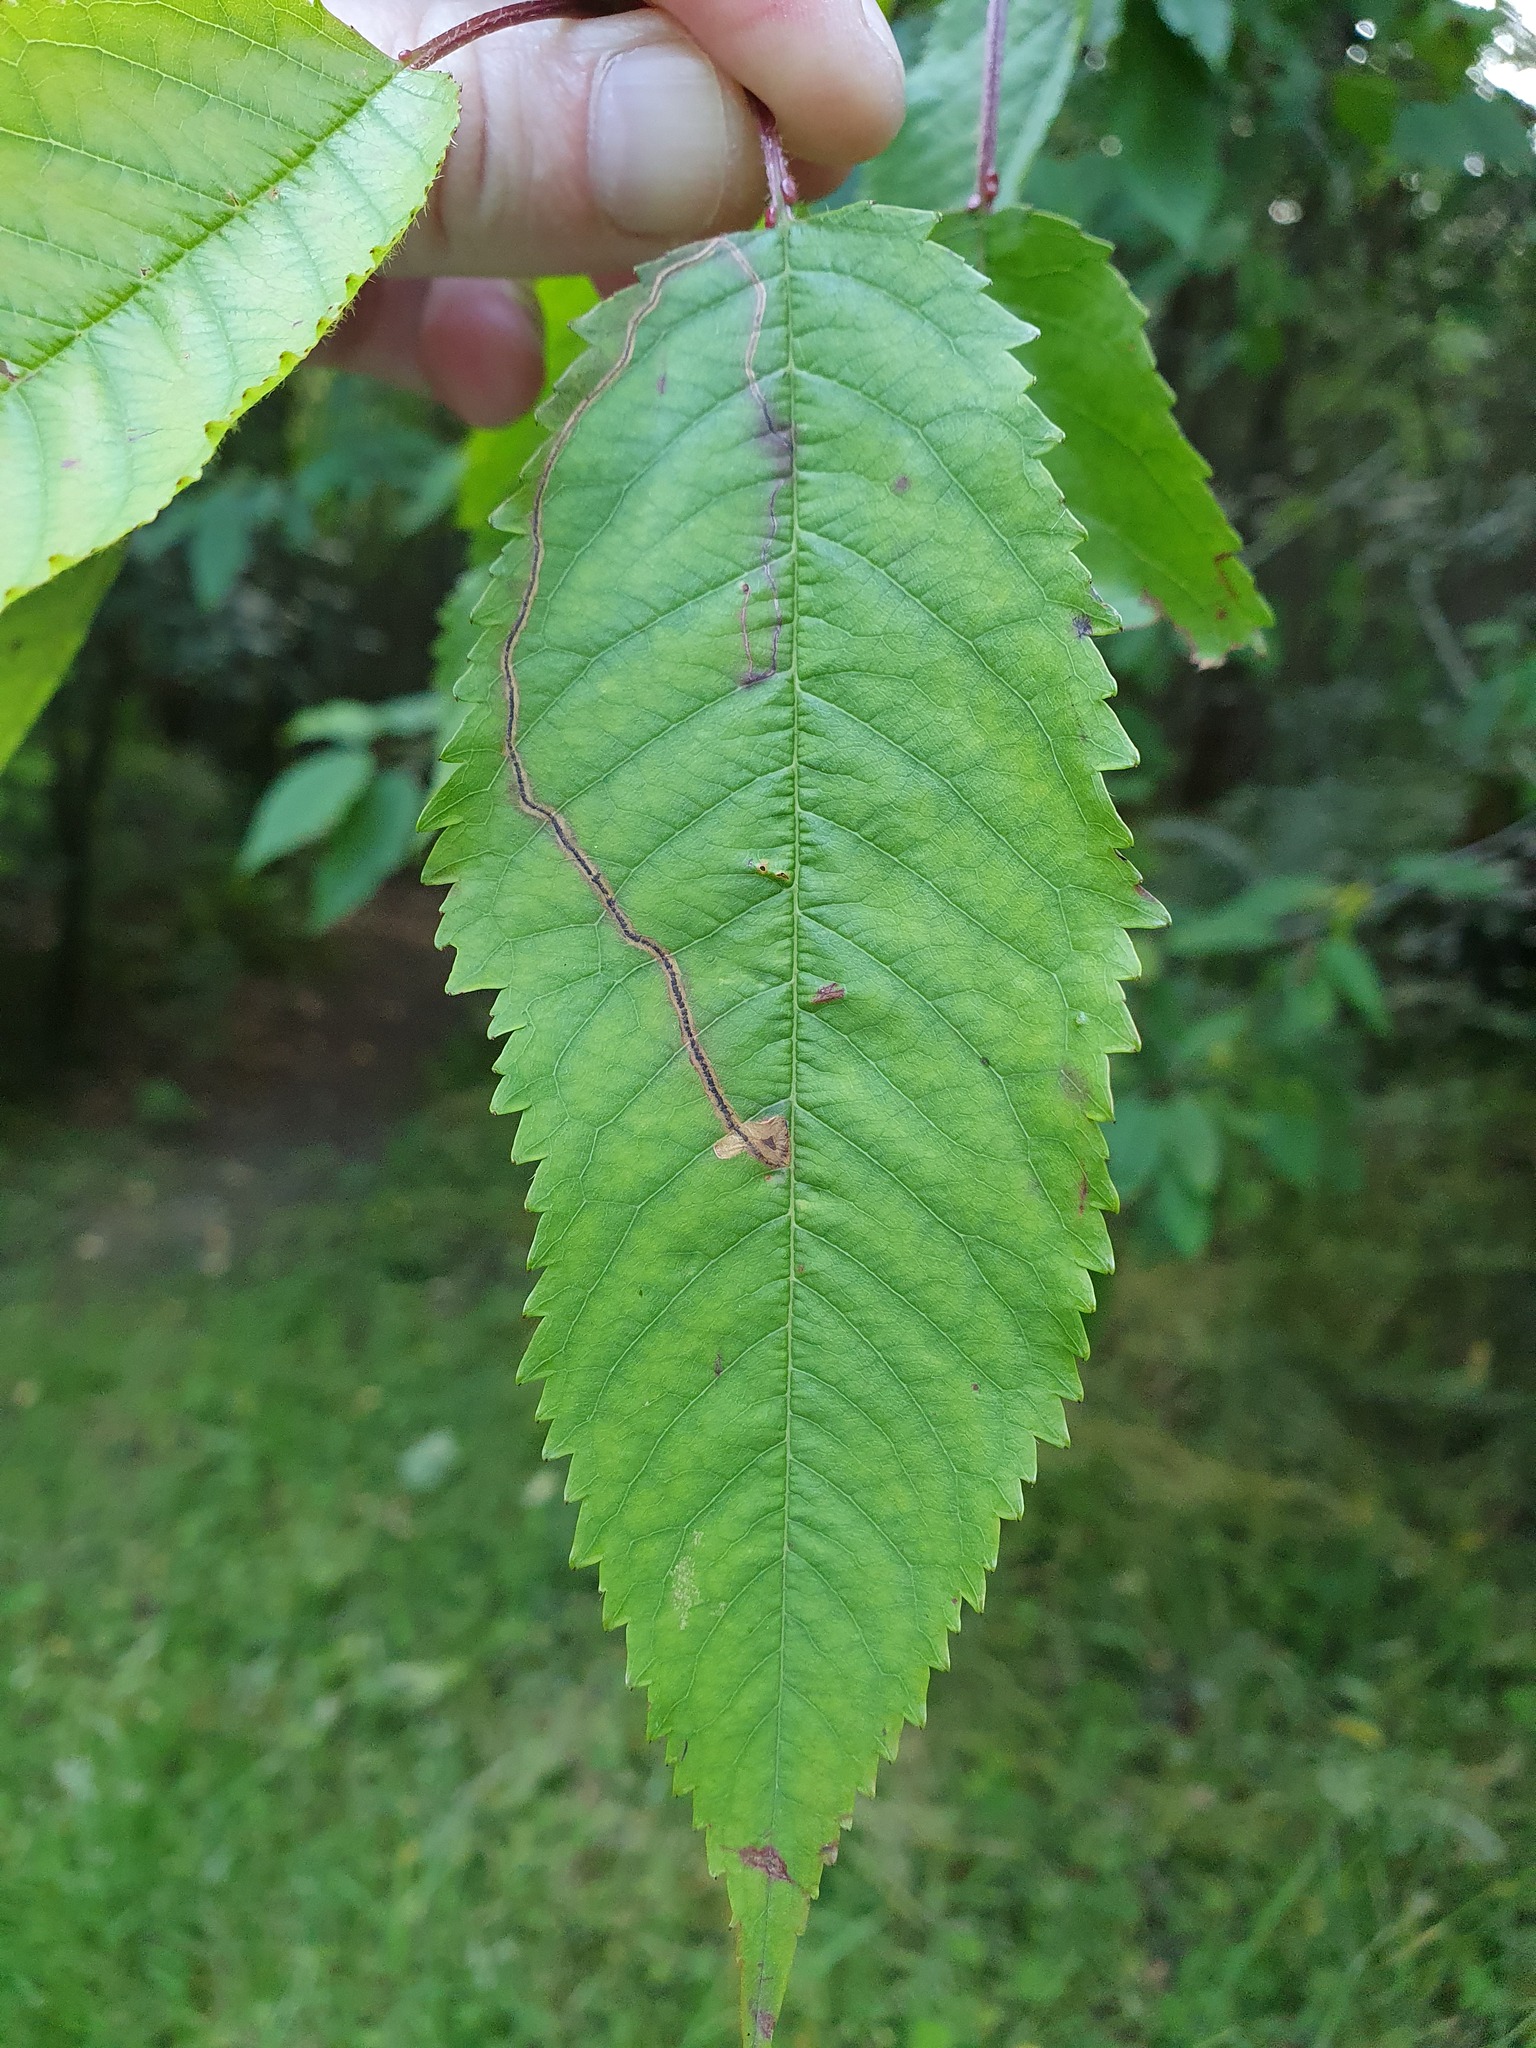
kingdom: Animalia
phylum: Arthropoda
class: Insecta
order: Lepidoptera
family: Lyonetiidae
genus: Lyonetia
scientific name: Lyonetia clerkella
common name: Apple leaf miner
